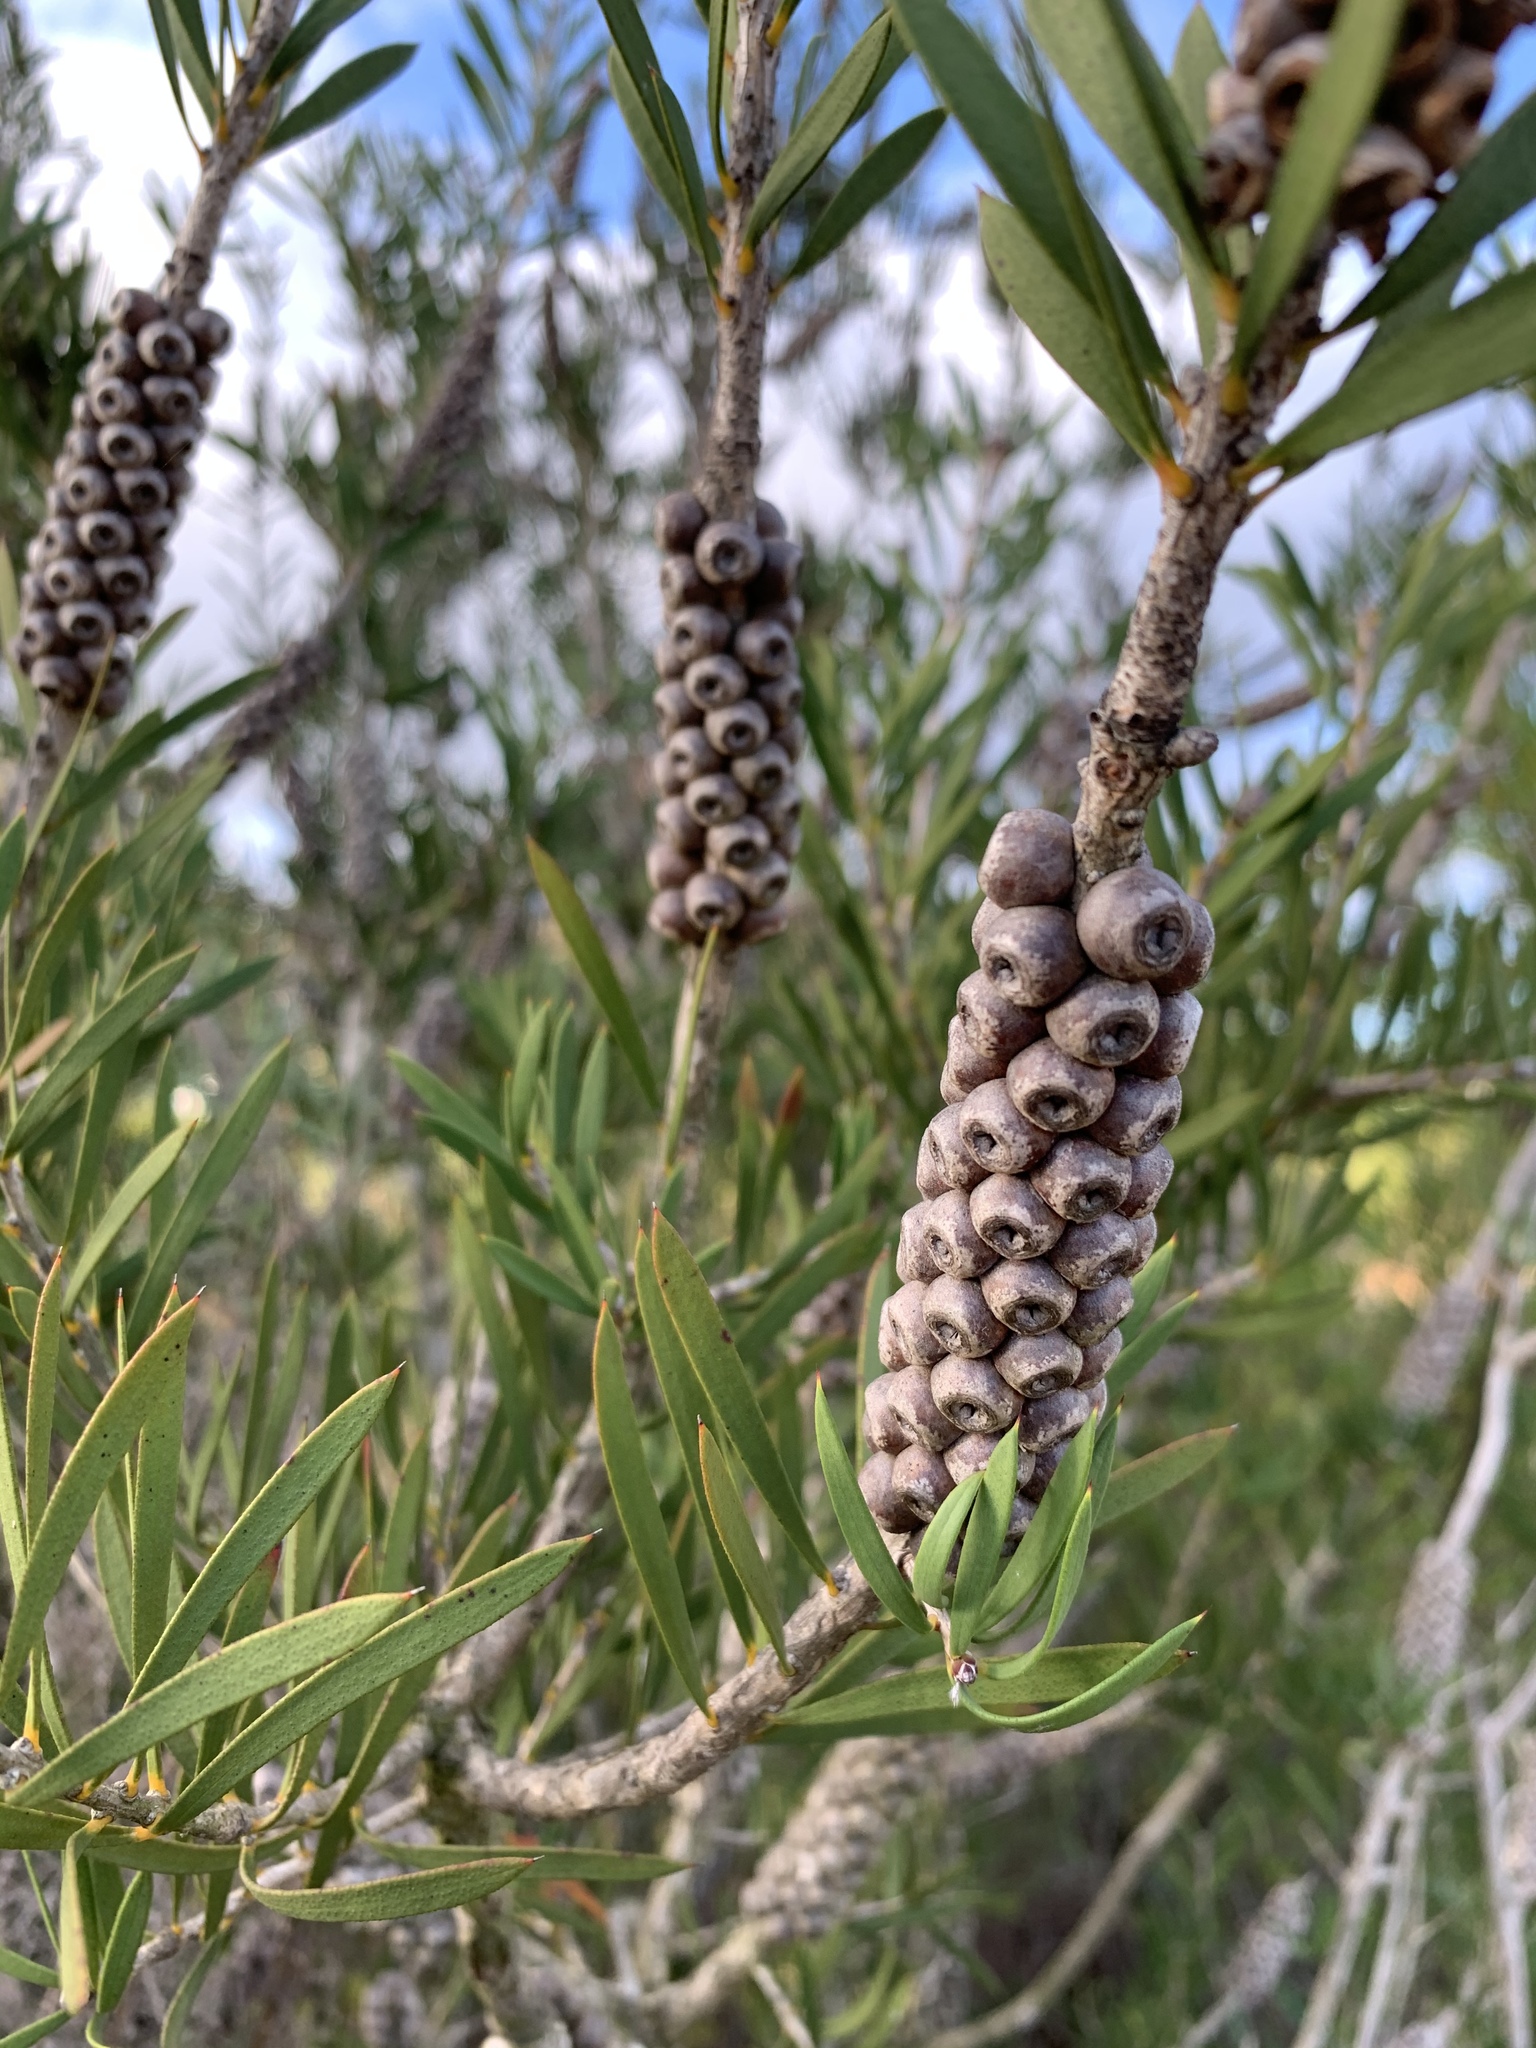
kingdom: Plantae
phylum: Tracheophyta
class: Magnoliopsida
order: Myrtales
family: Myrtaceae
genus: Callistemon
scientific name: Callistemon rugulosus
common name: Scarlet bottlebrush
